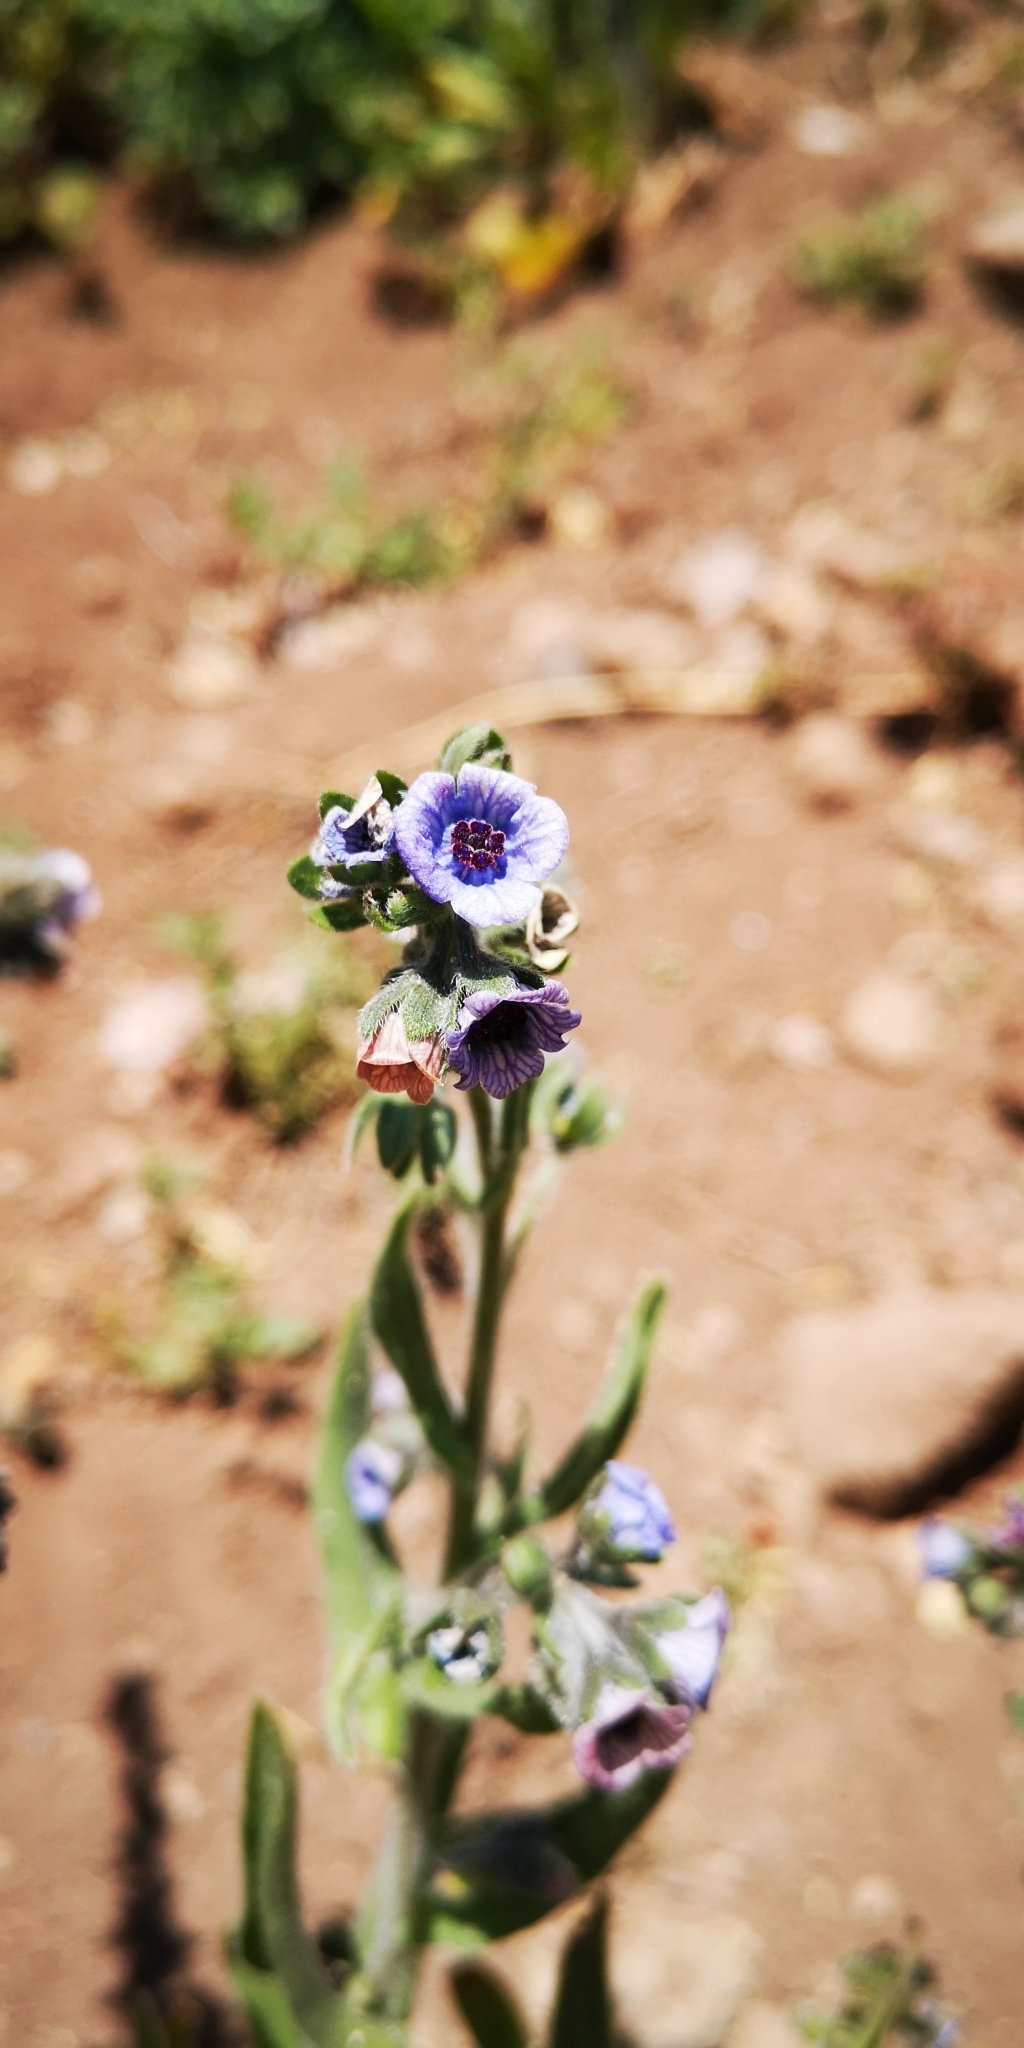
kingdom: Plantae
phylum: Tracheophyta
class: Magnoliopsida
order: Boraginales
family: Boraginaceae
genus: Cynoglossum
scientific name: Cynoglossum creticum
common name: Blue hound's tongue
